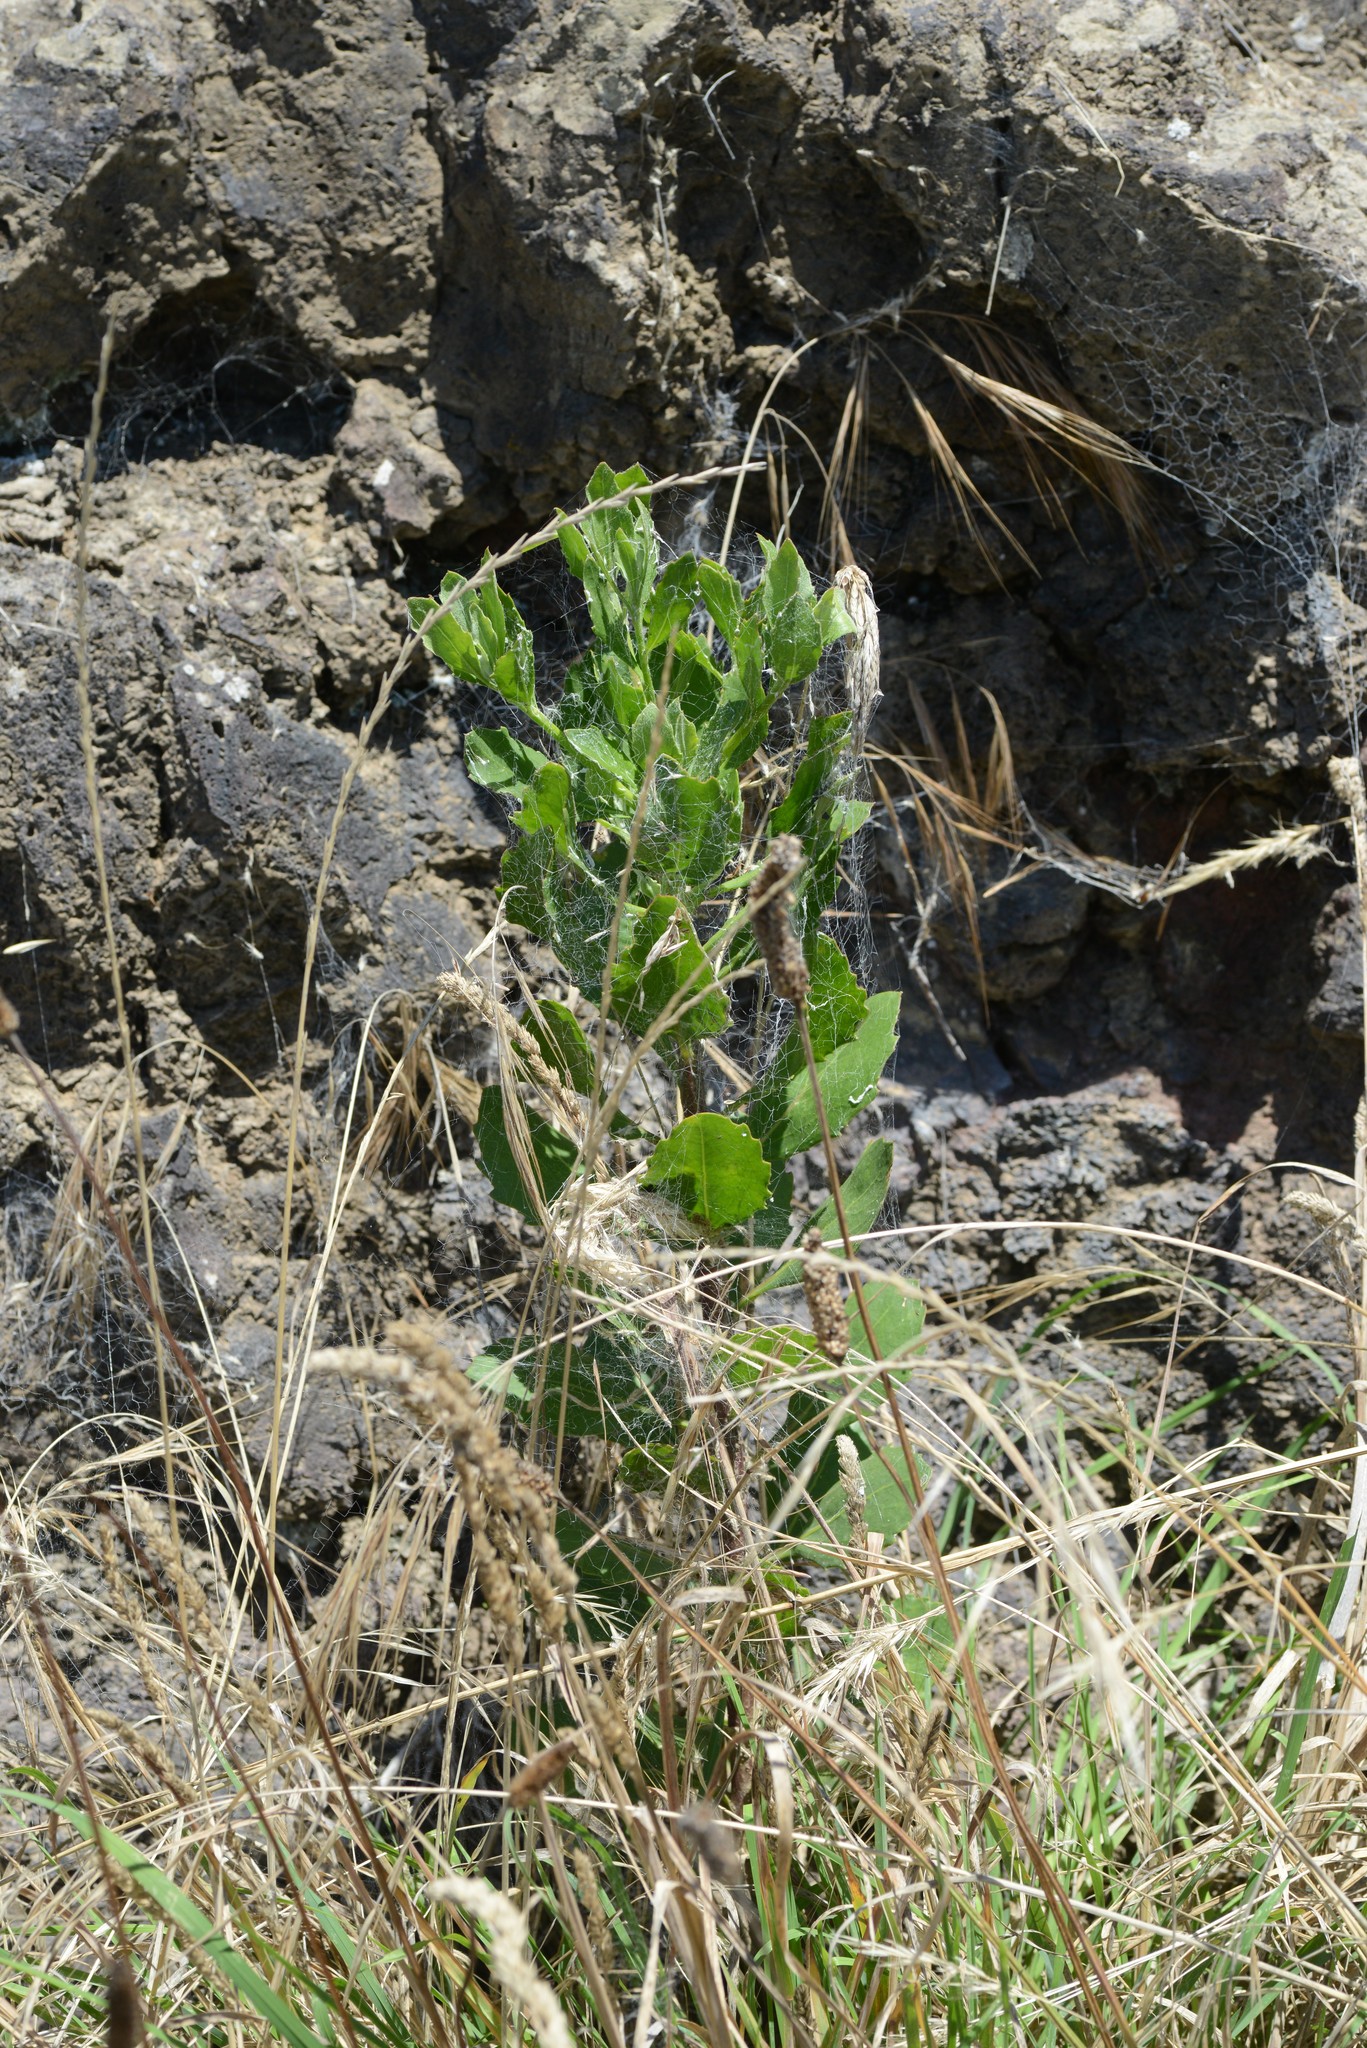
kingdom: Plantae
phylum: Tracheophyta
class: Magnoliopsida
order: Asterales
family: Asteraceae
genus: Osteospermum
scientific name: Osteospermum moniliferum
